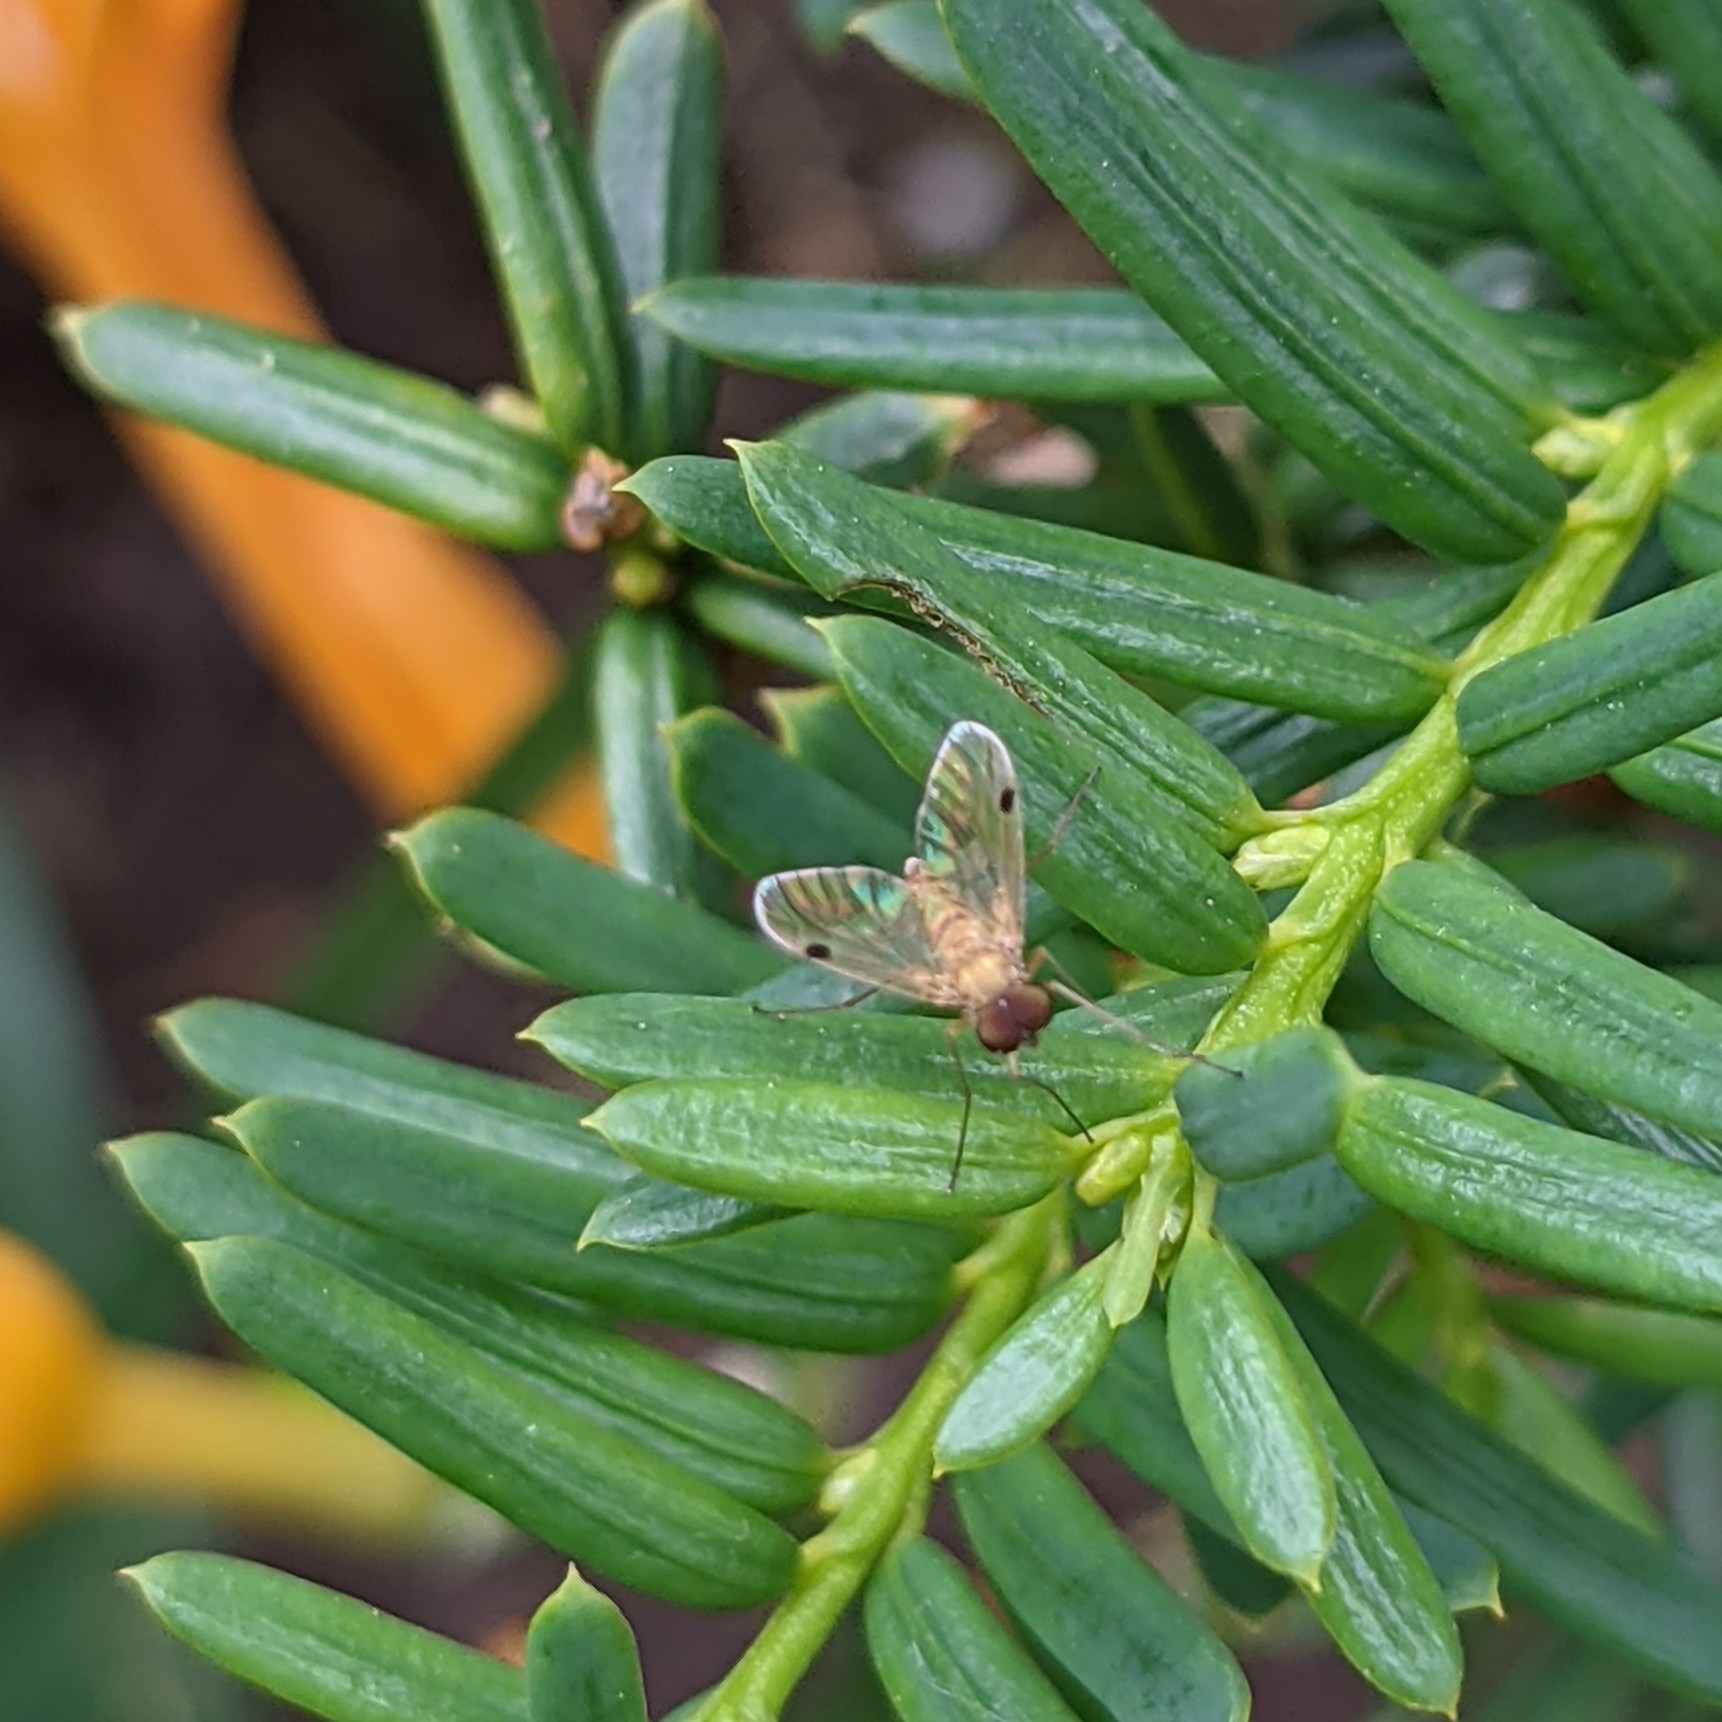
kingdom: Animalia
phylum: Arthropoda
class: Insecta
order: Diptera
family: Rhagionidae
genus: Chrysopilus
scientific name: Chrysopilus modestus
